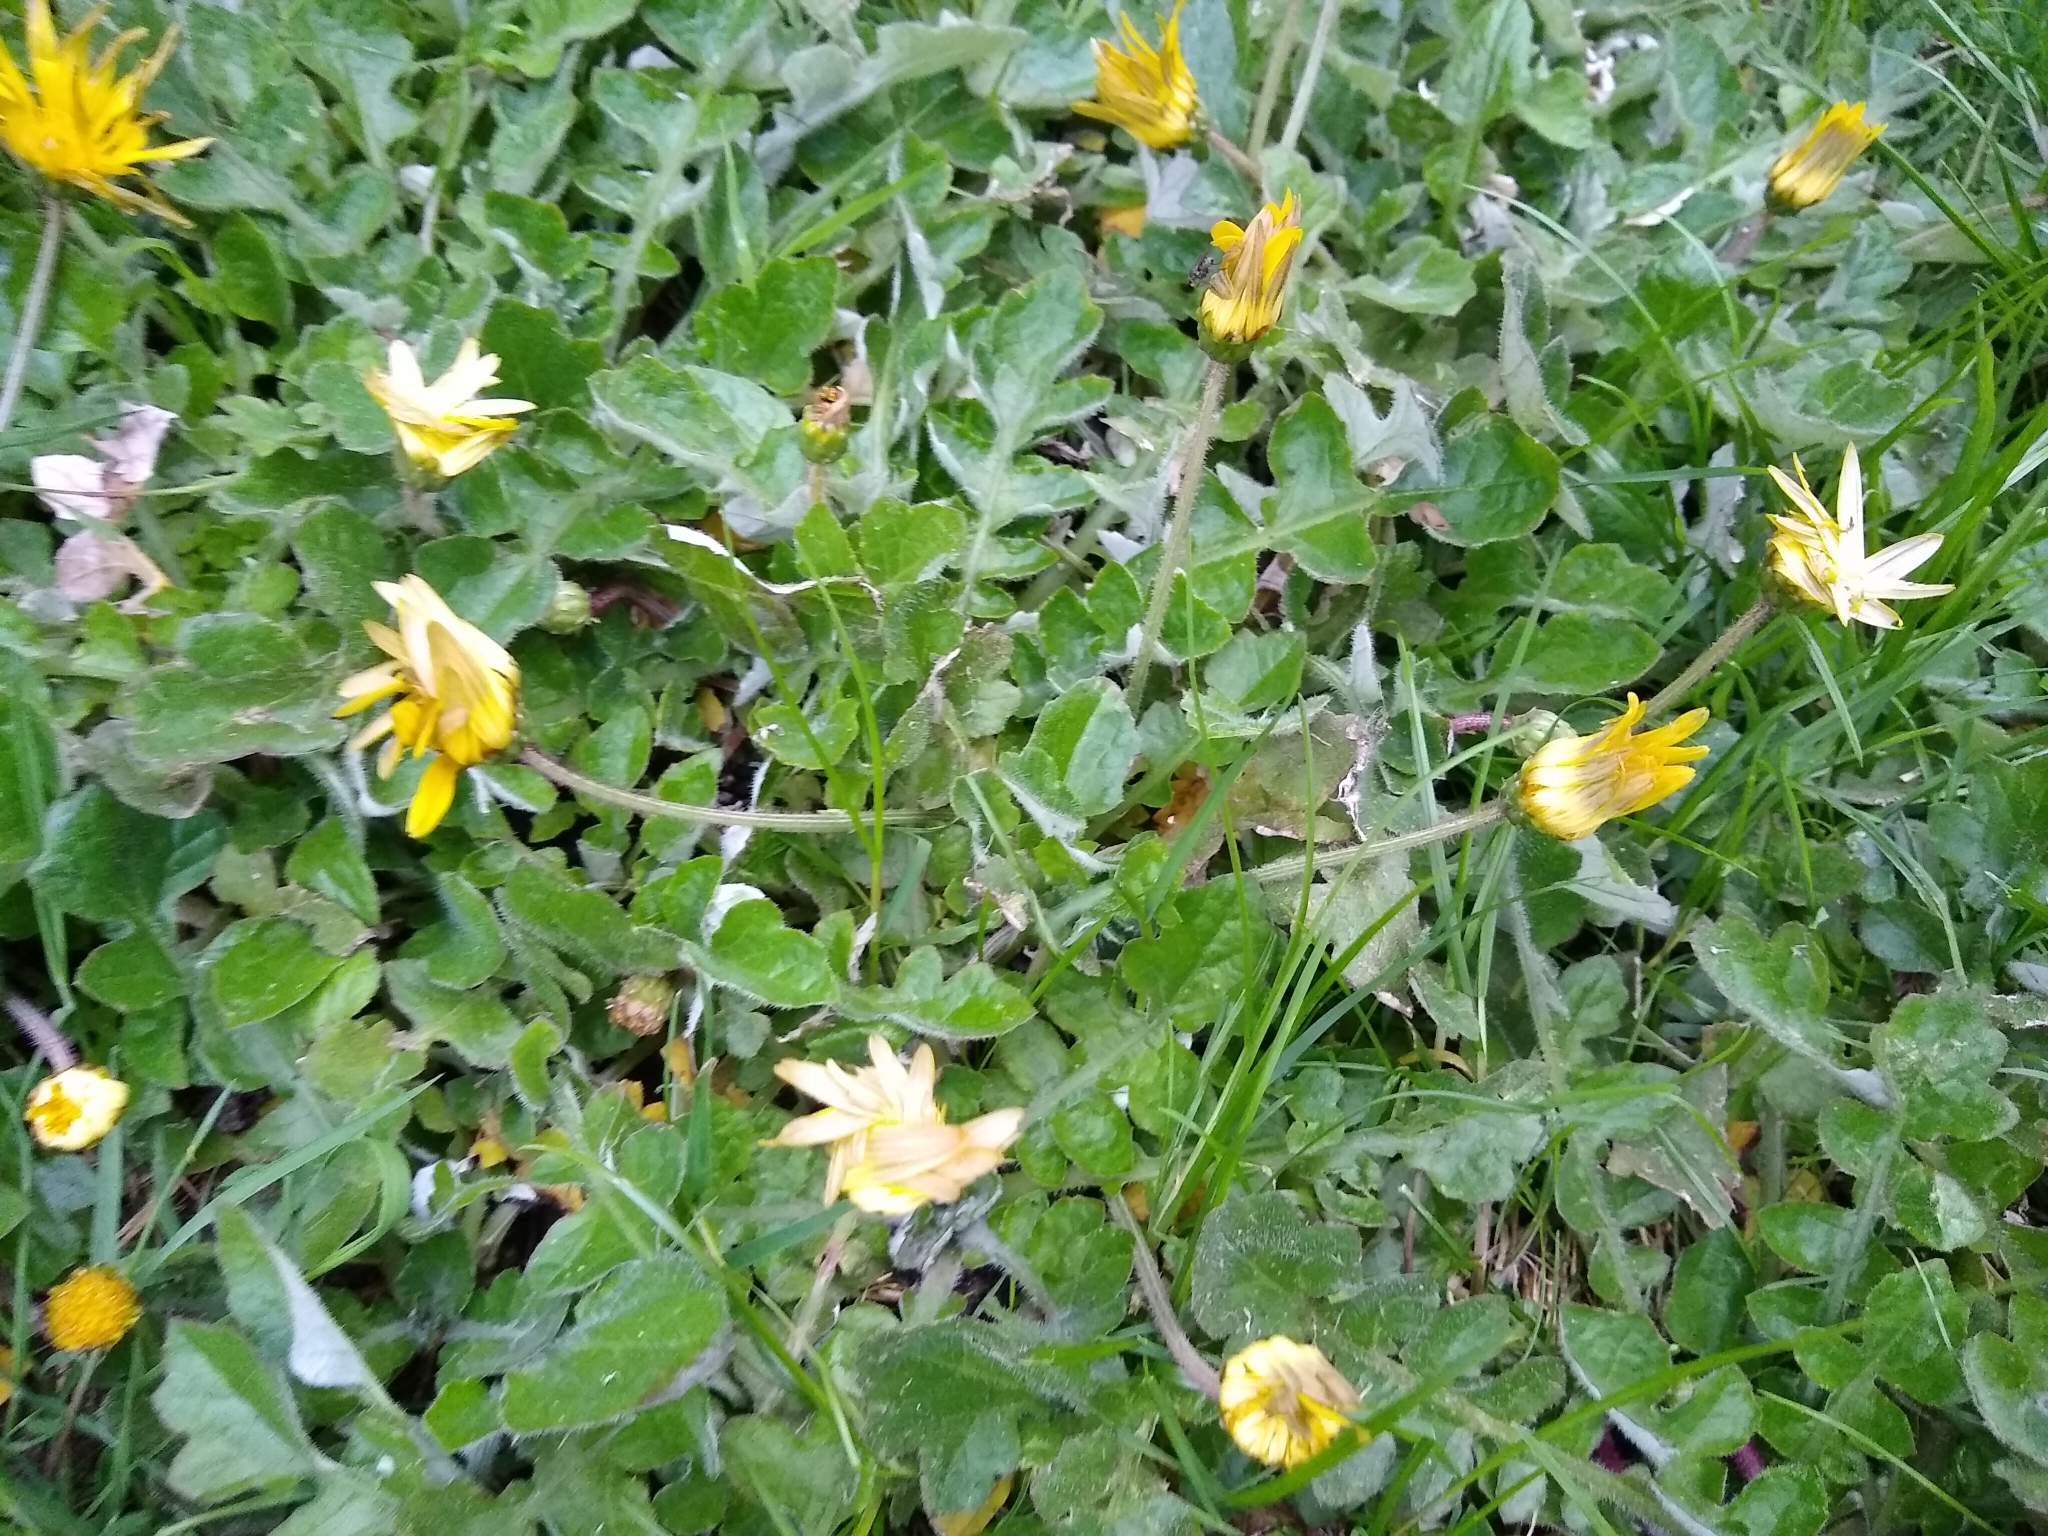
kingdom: Plantae
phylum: Tracheophyta
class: Magnoliopsida
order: Asterales
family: Asteraceae
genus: Arctotheca
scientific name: Arctotheca prostrata
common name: Capeweed
